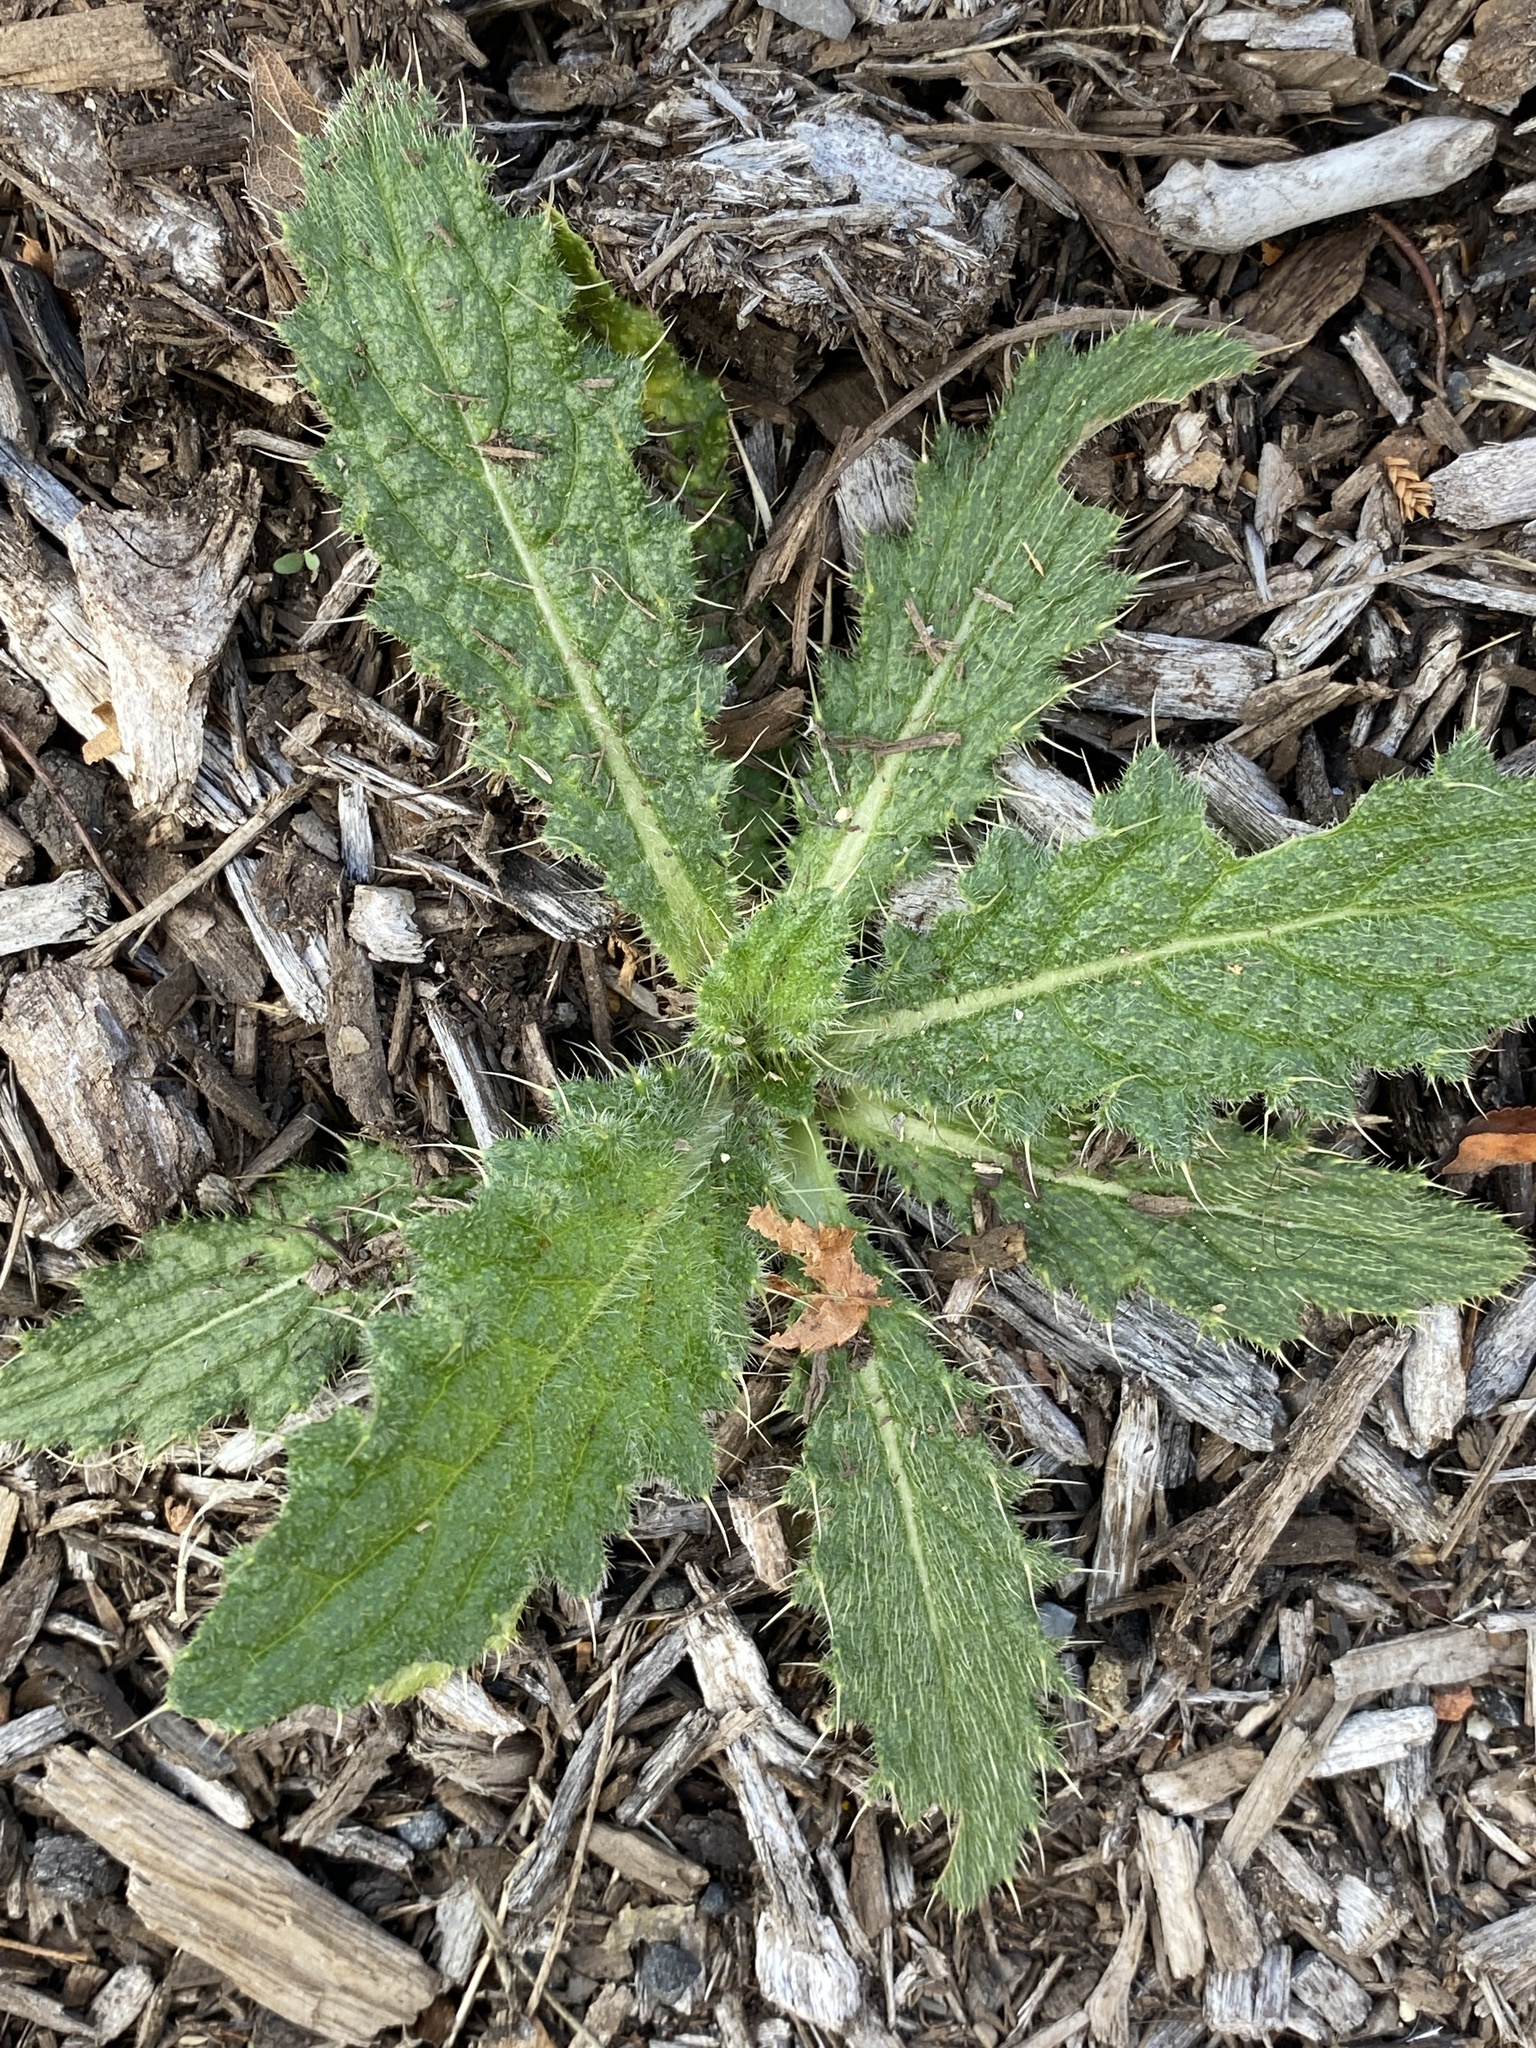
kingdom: Plantae
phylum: Tracheophyta
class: Magnoliopsida
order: Asterales
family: Asteraceae
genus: Cirsium
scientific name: Cirsium vulgare
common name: Bull thistle
